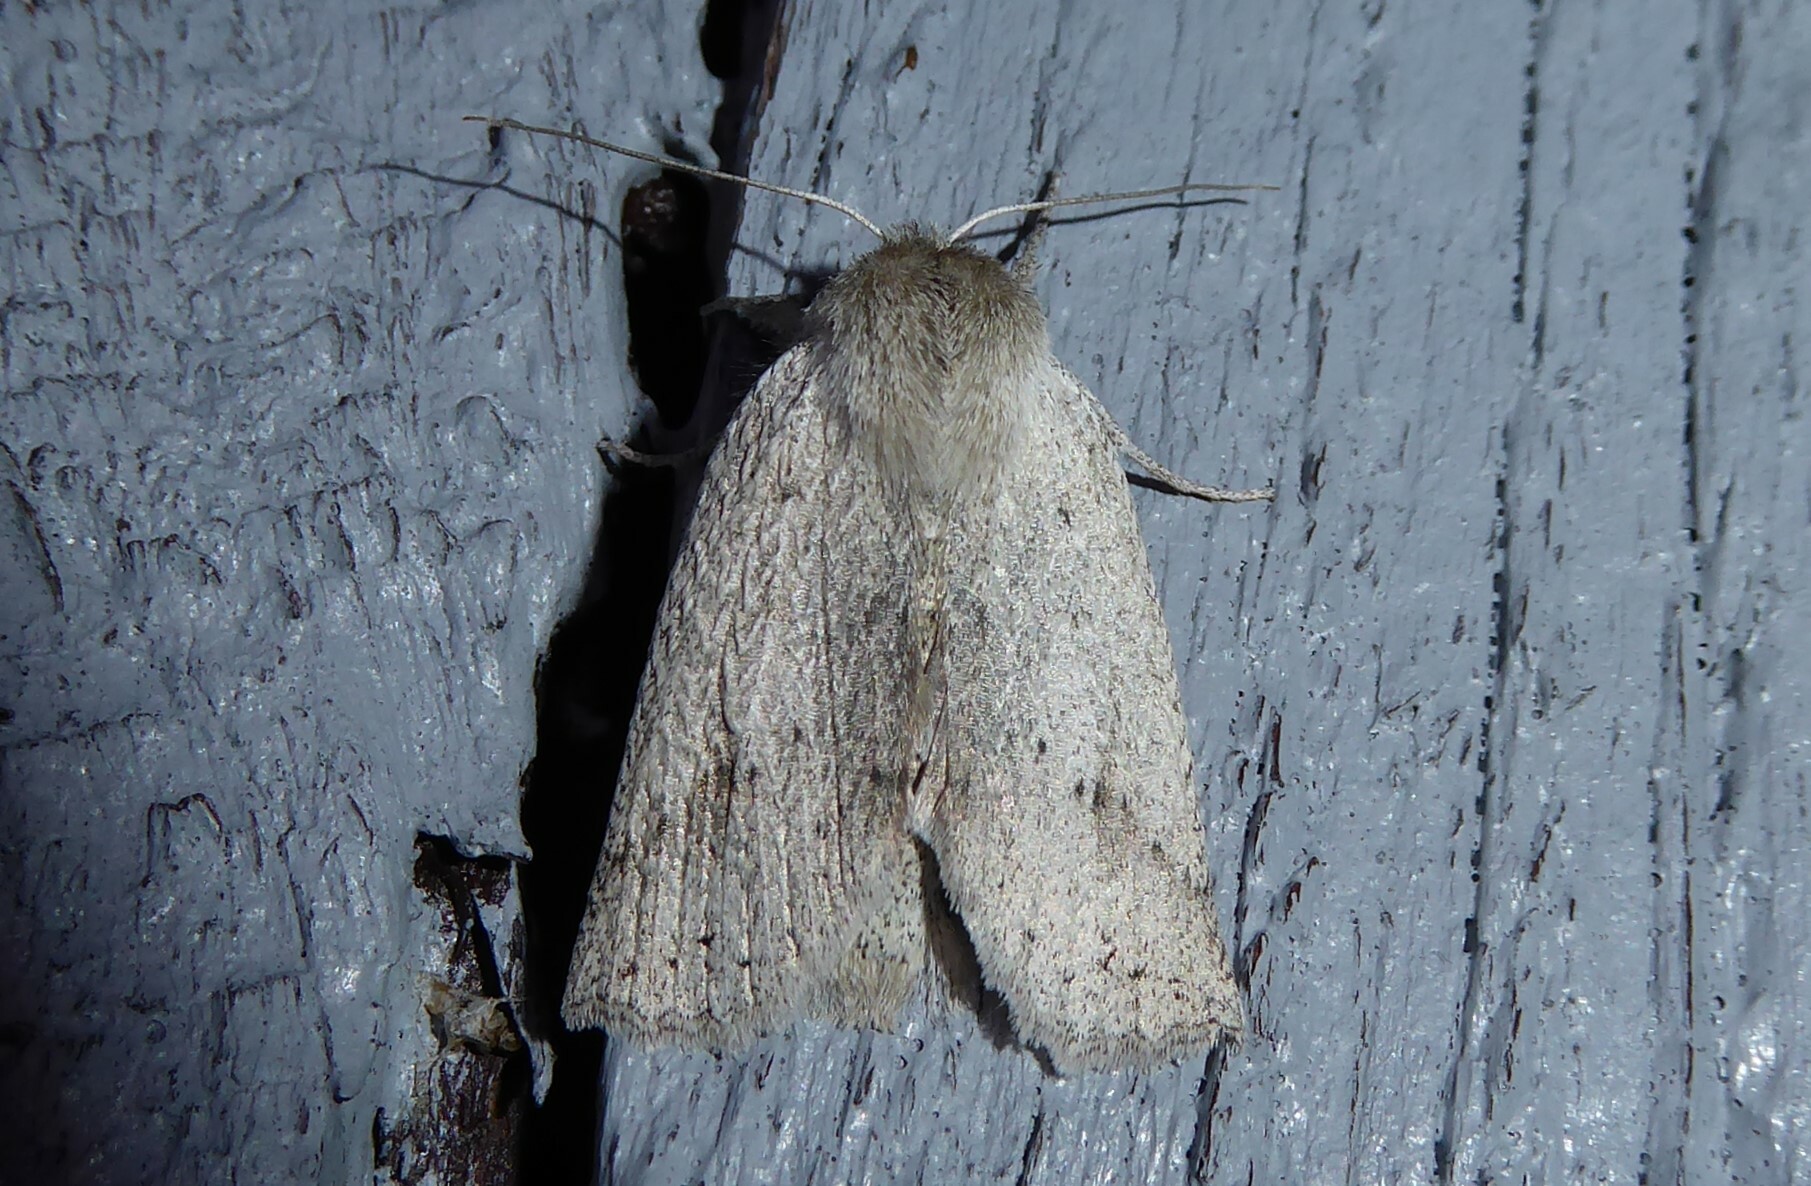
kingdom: Animalia
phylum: Arthropoda
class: Insecta
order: Lepidoptera
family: Geometridae
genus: Declana
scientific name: Declana leptomera
